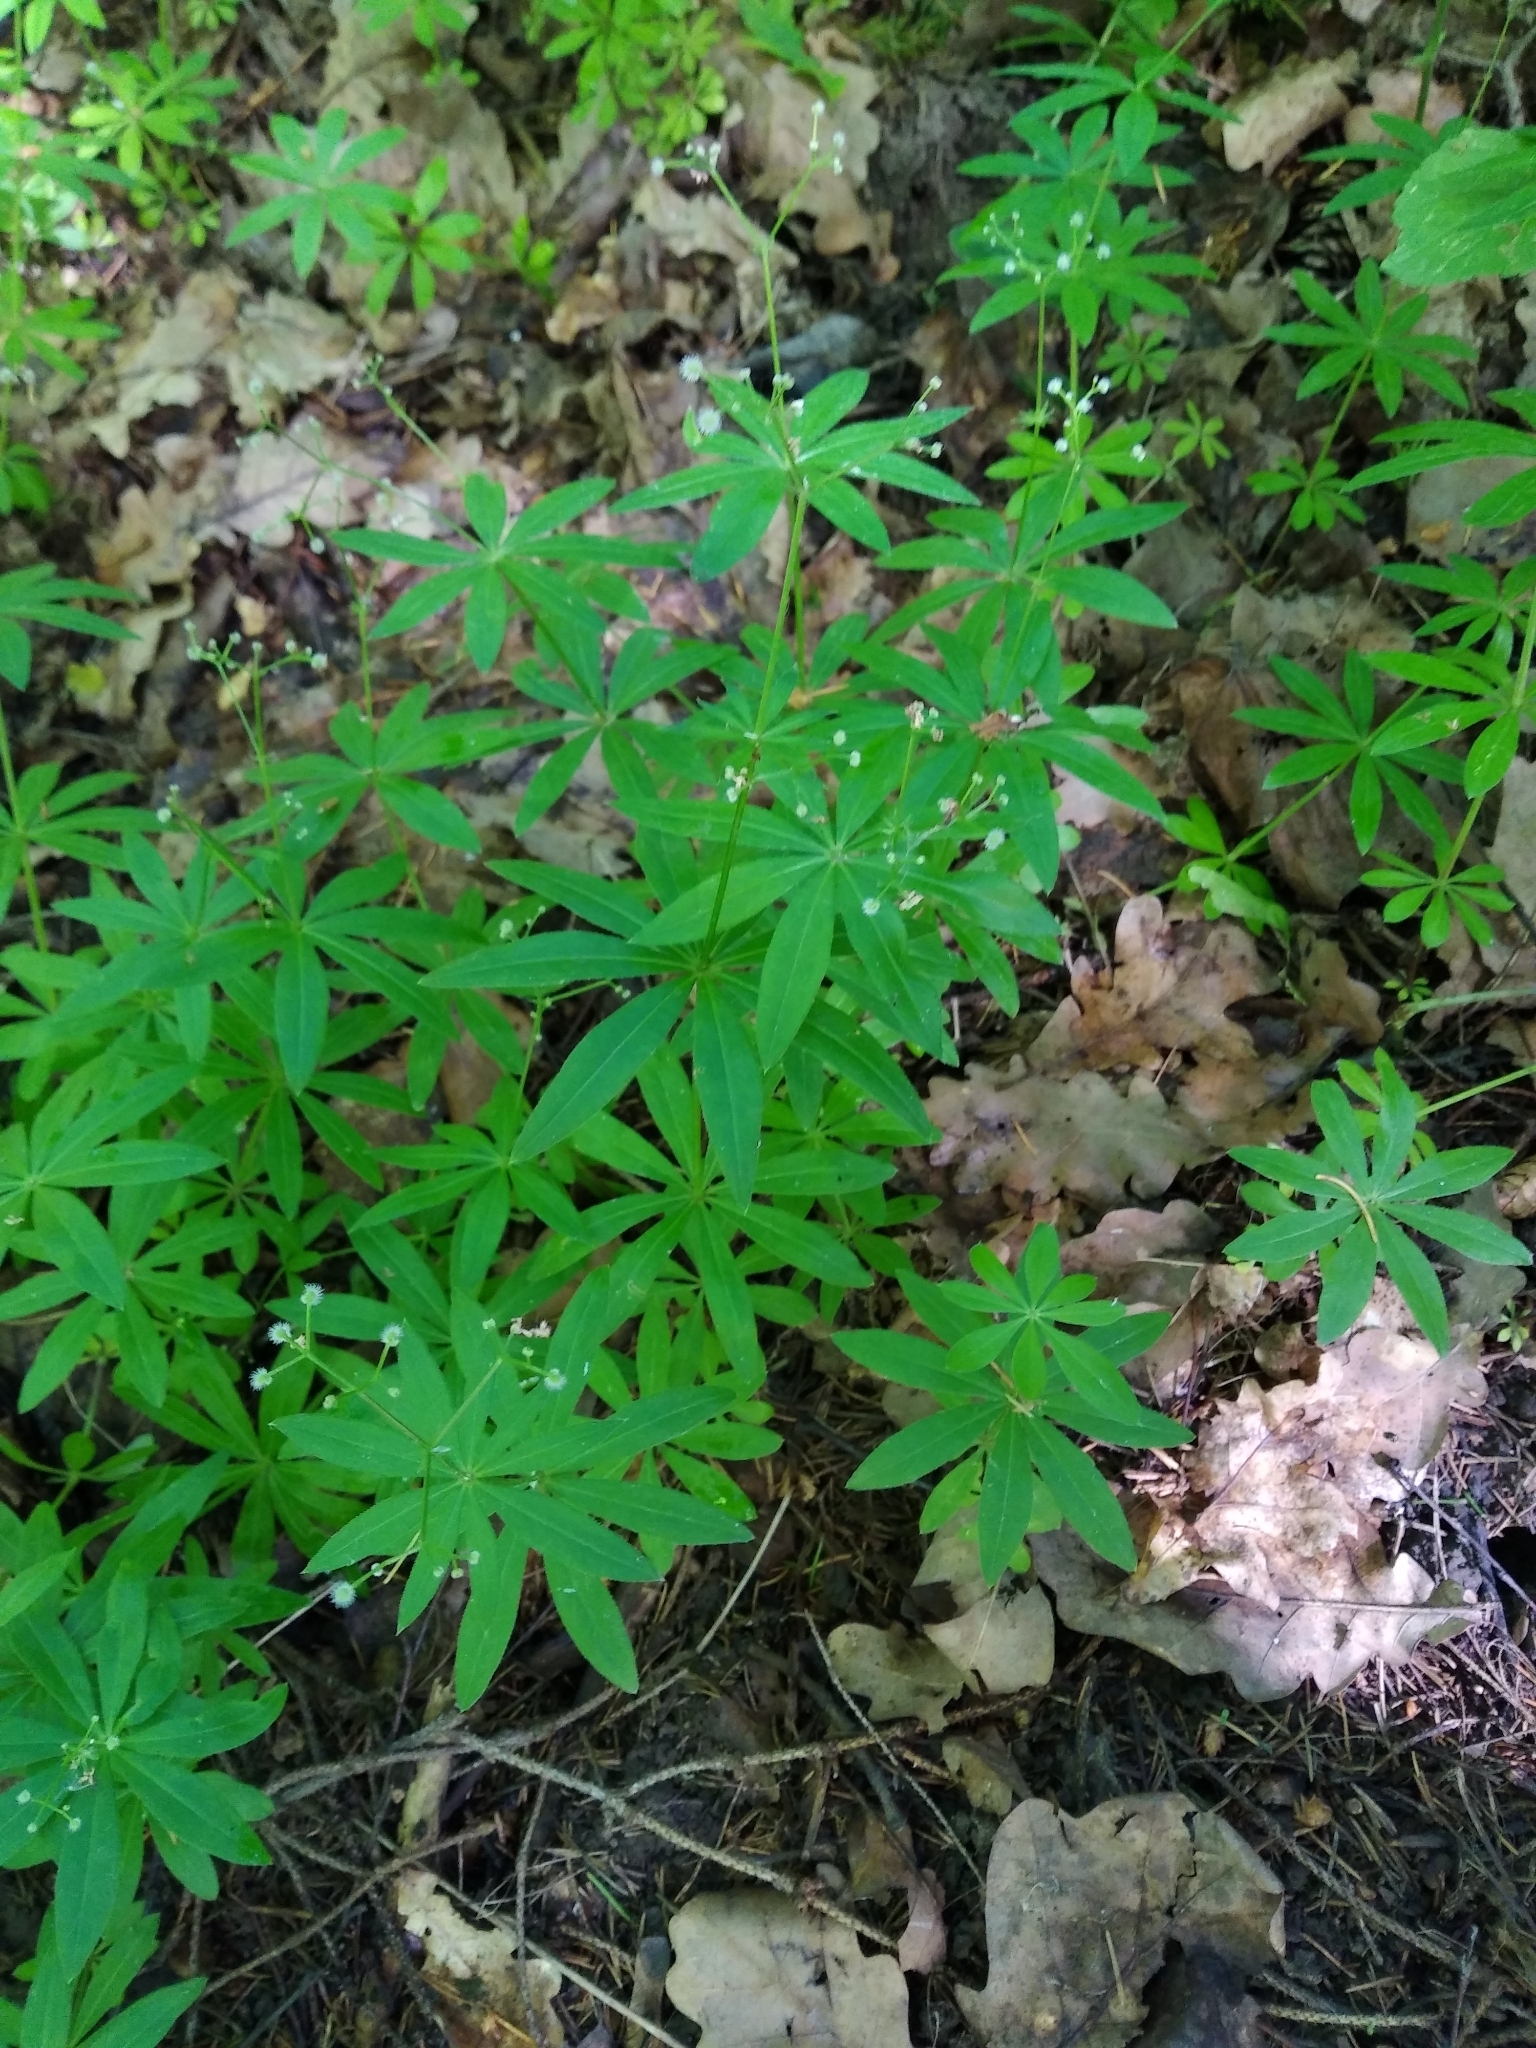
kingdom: Plantae
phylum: Tracheophyta
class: Magnoliopsida
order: Gentianales
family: Rubiaceae
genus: Galium
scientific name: Galium odoratum
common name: Sweet woodruff
